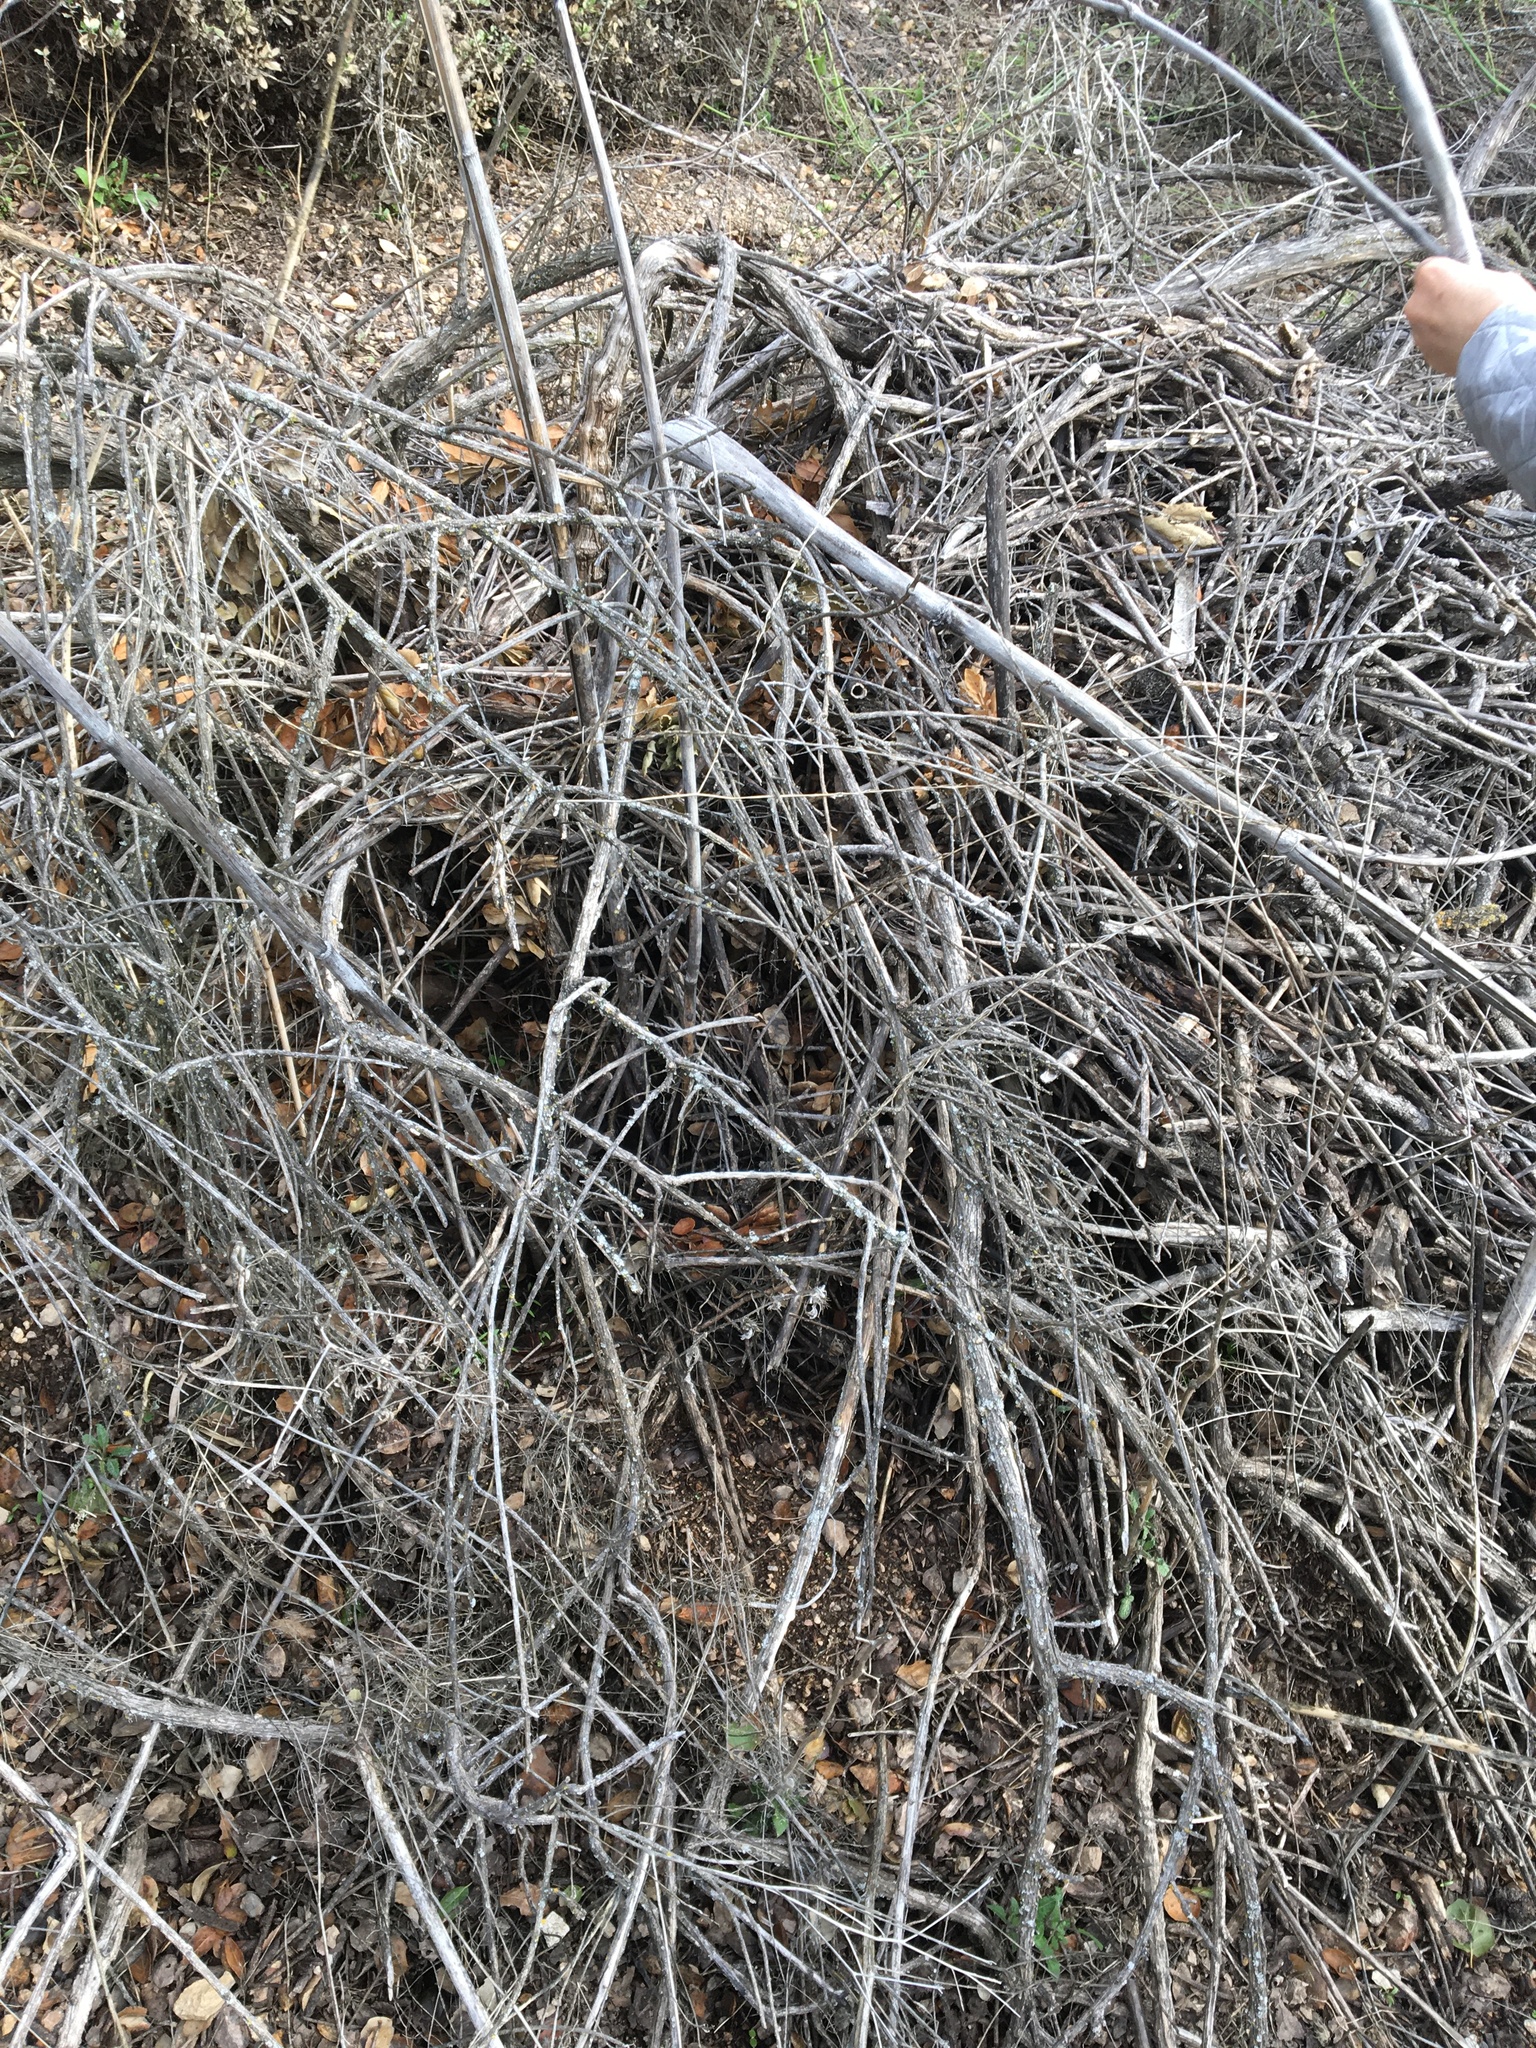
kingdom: Animalia
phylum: Chordata
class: Mammalia
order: Rodentia
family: Cricetidae
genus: Neotoma
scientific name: Neotoma fuscipes
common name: Dusky-footed woodrat
